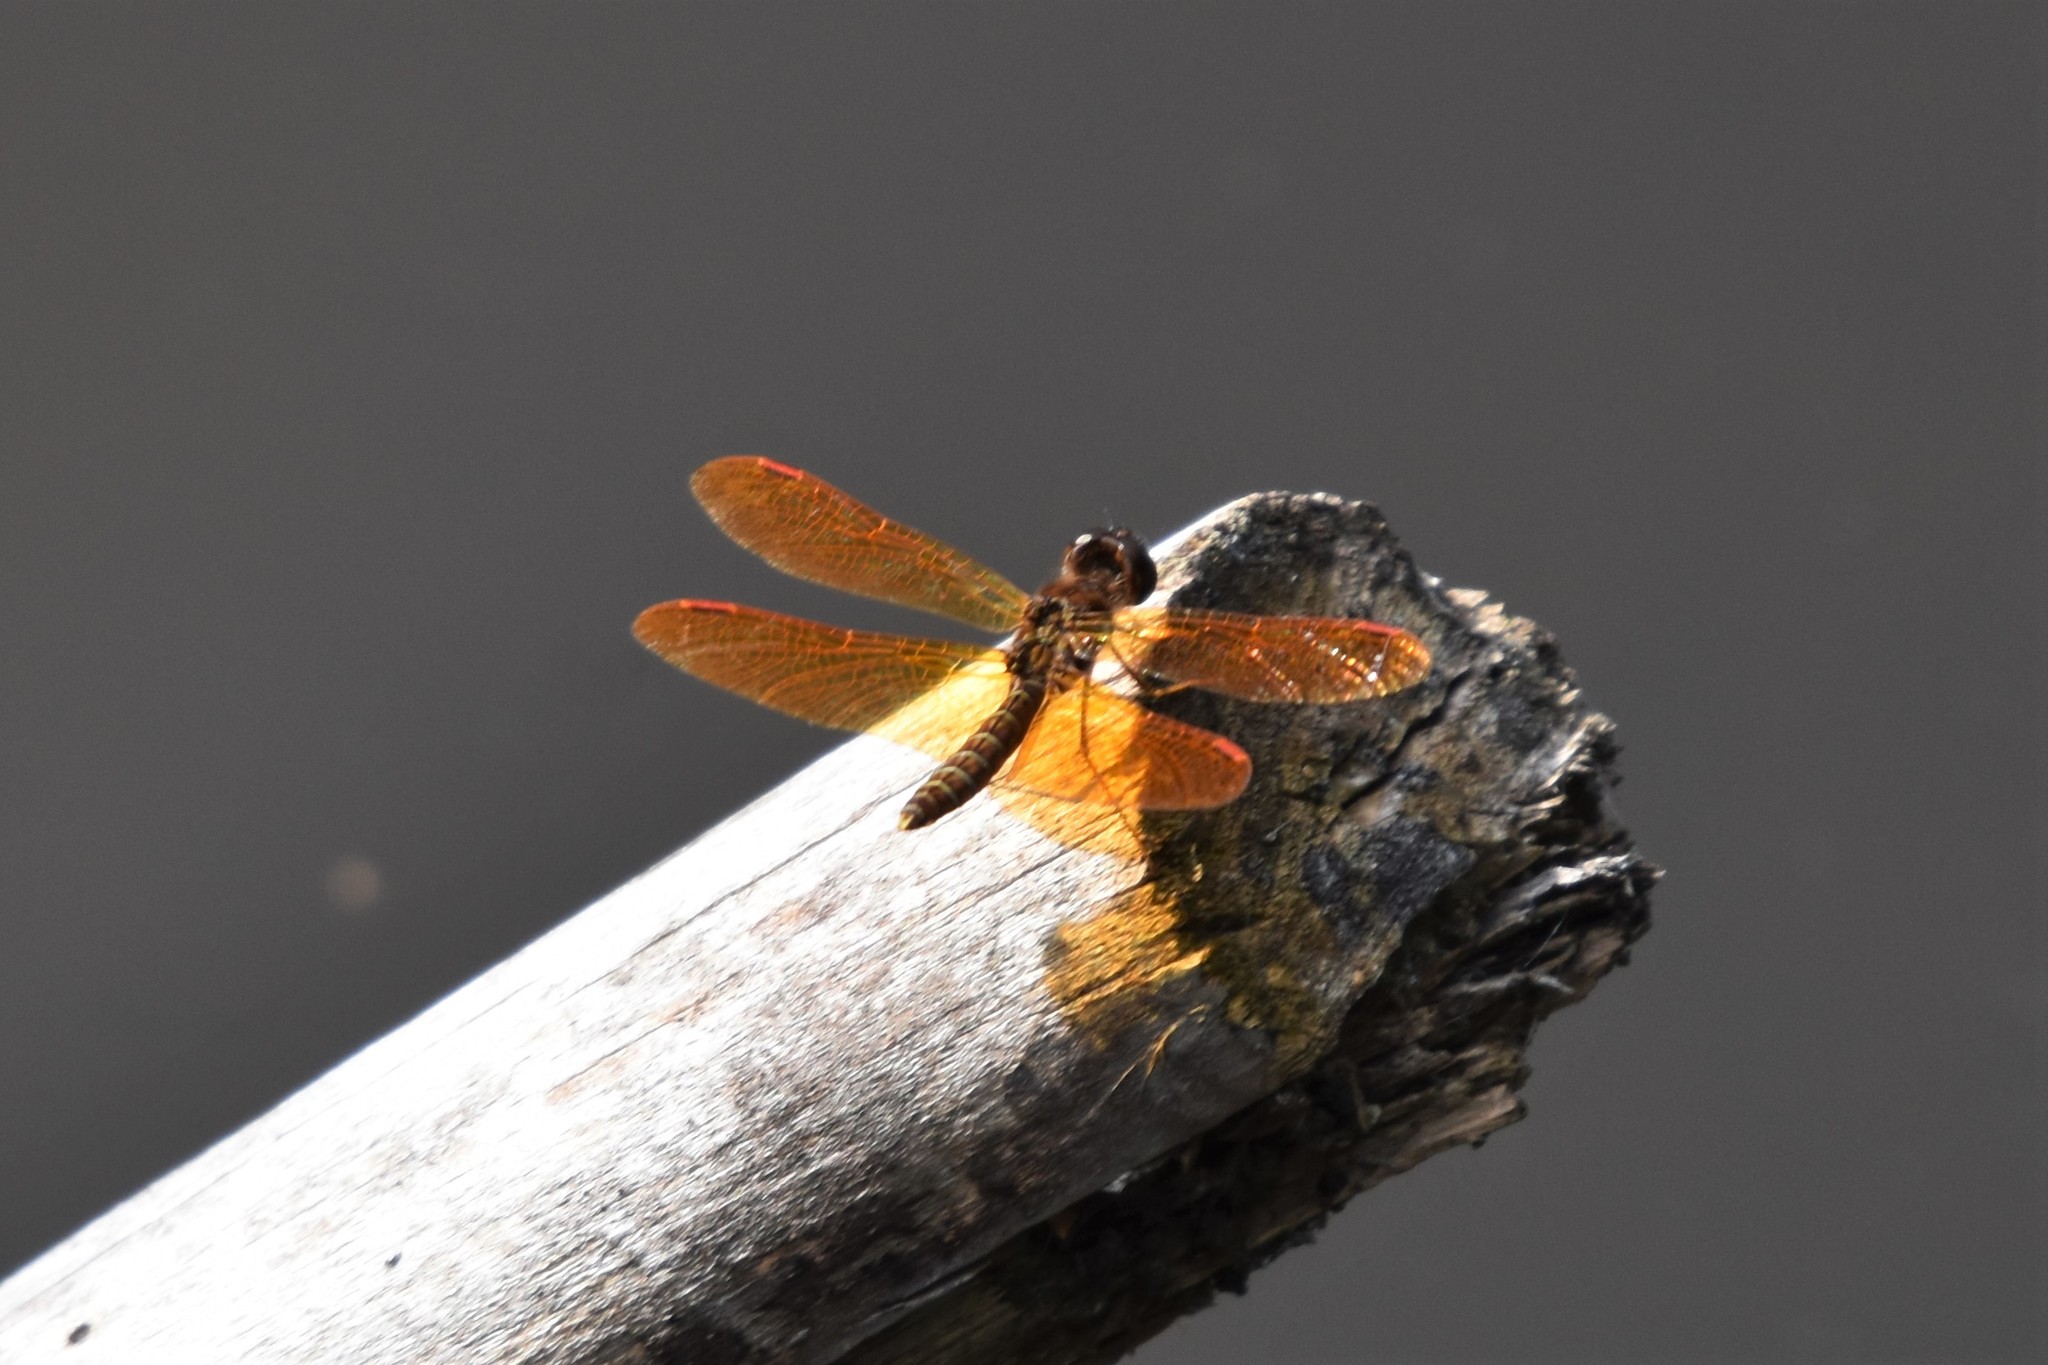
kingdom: Animalia
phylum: Arthropoda
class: Insecta
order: Odonata
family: Libellulidae
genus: Perithemis
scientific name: Perithemis tenera
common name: Eastern amberwing
